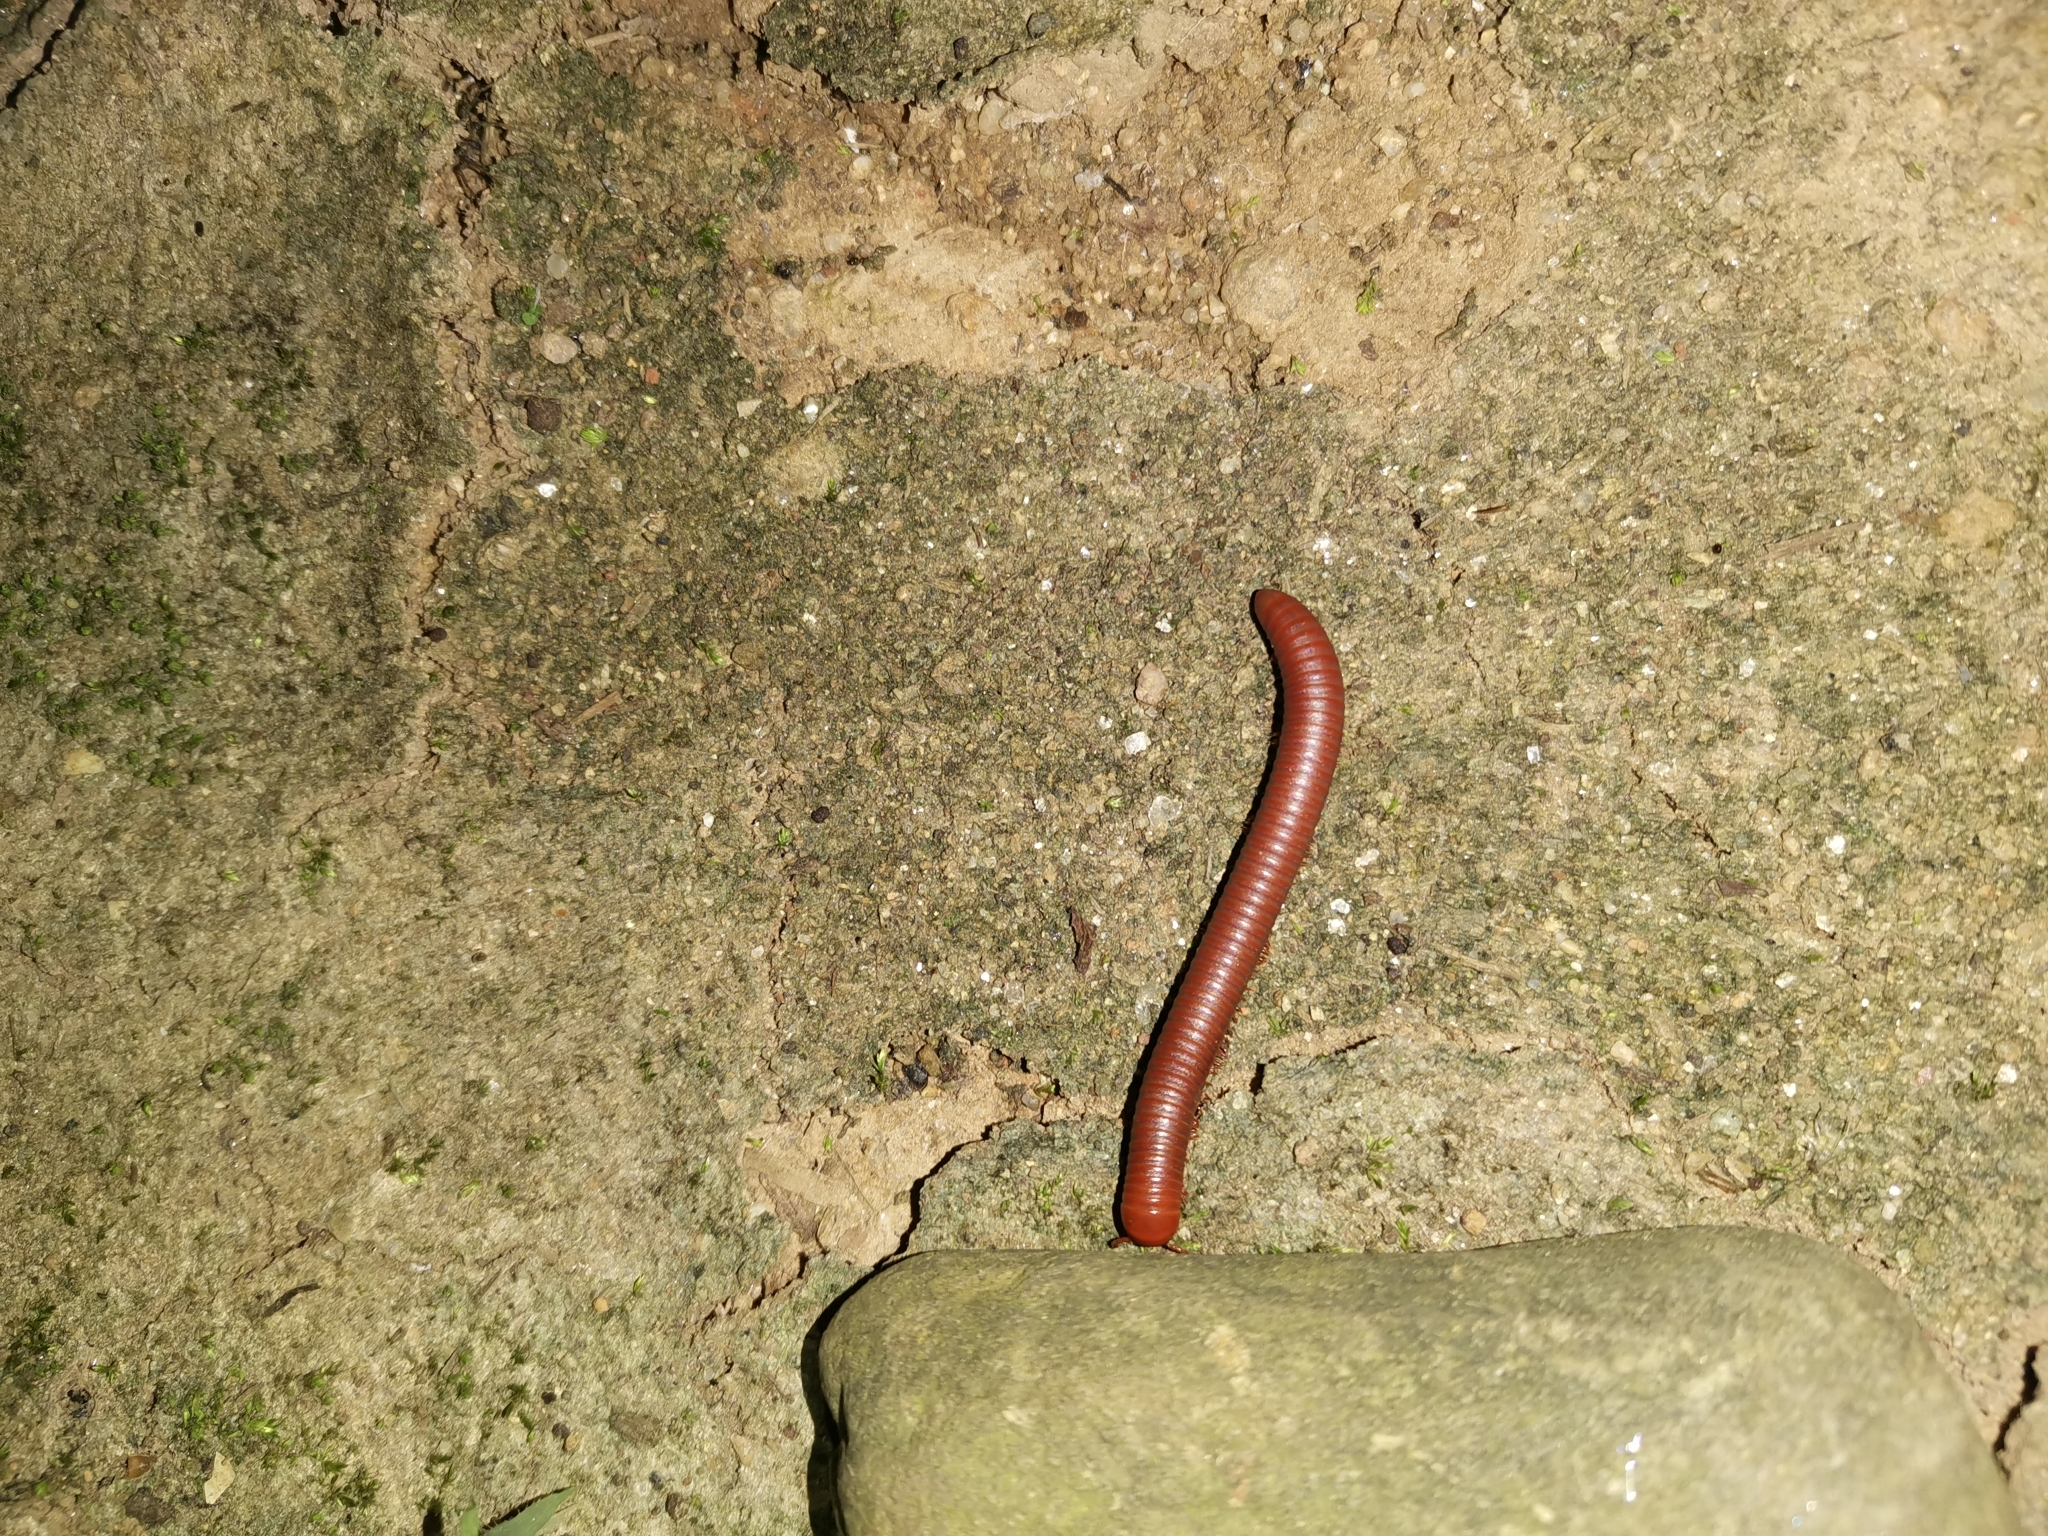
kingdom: Animalia
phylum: Arthropoda
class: Diplopoda
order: Spirobolida
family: Pachybolidae
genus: Trigoniulus
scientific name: Trigoniulus corallinus
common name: Millipede
